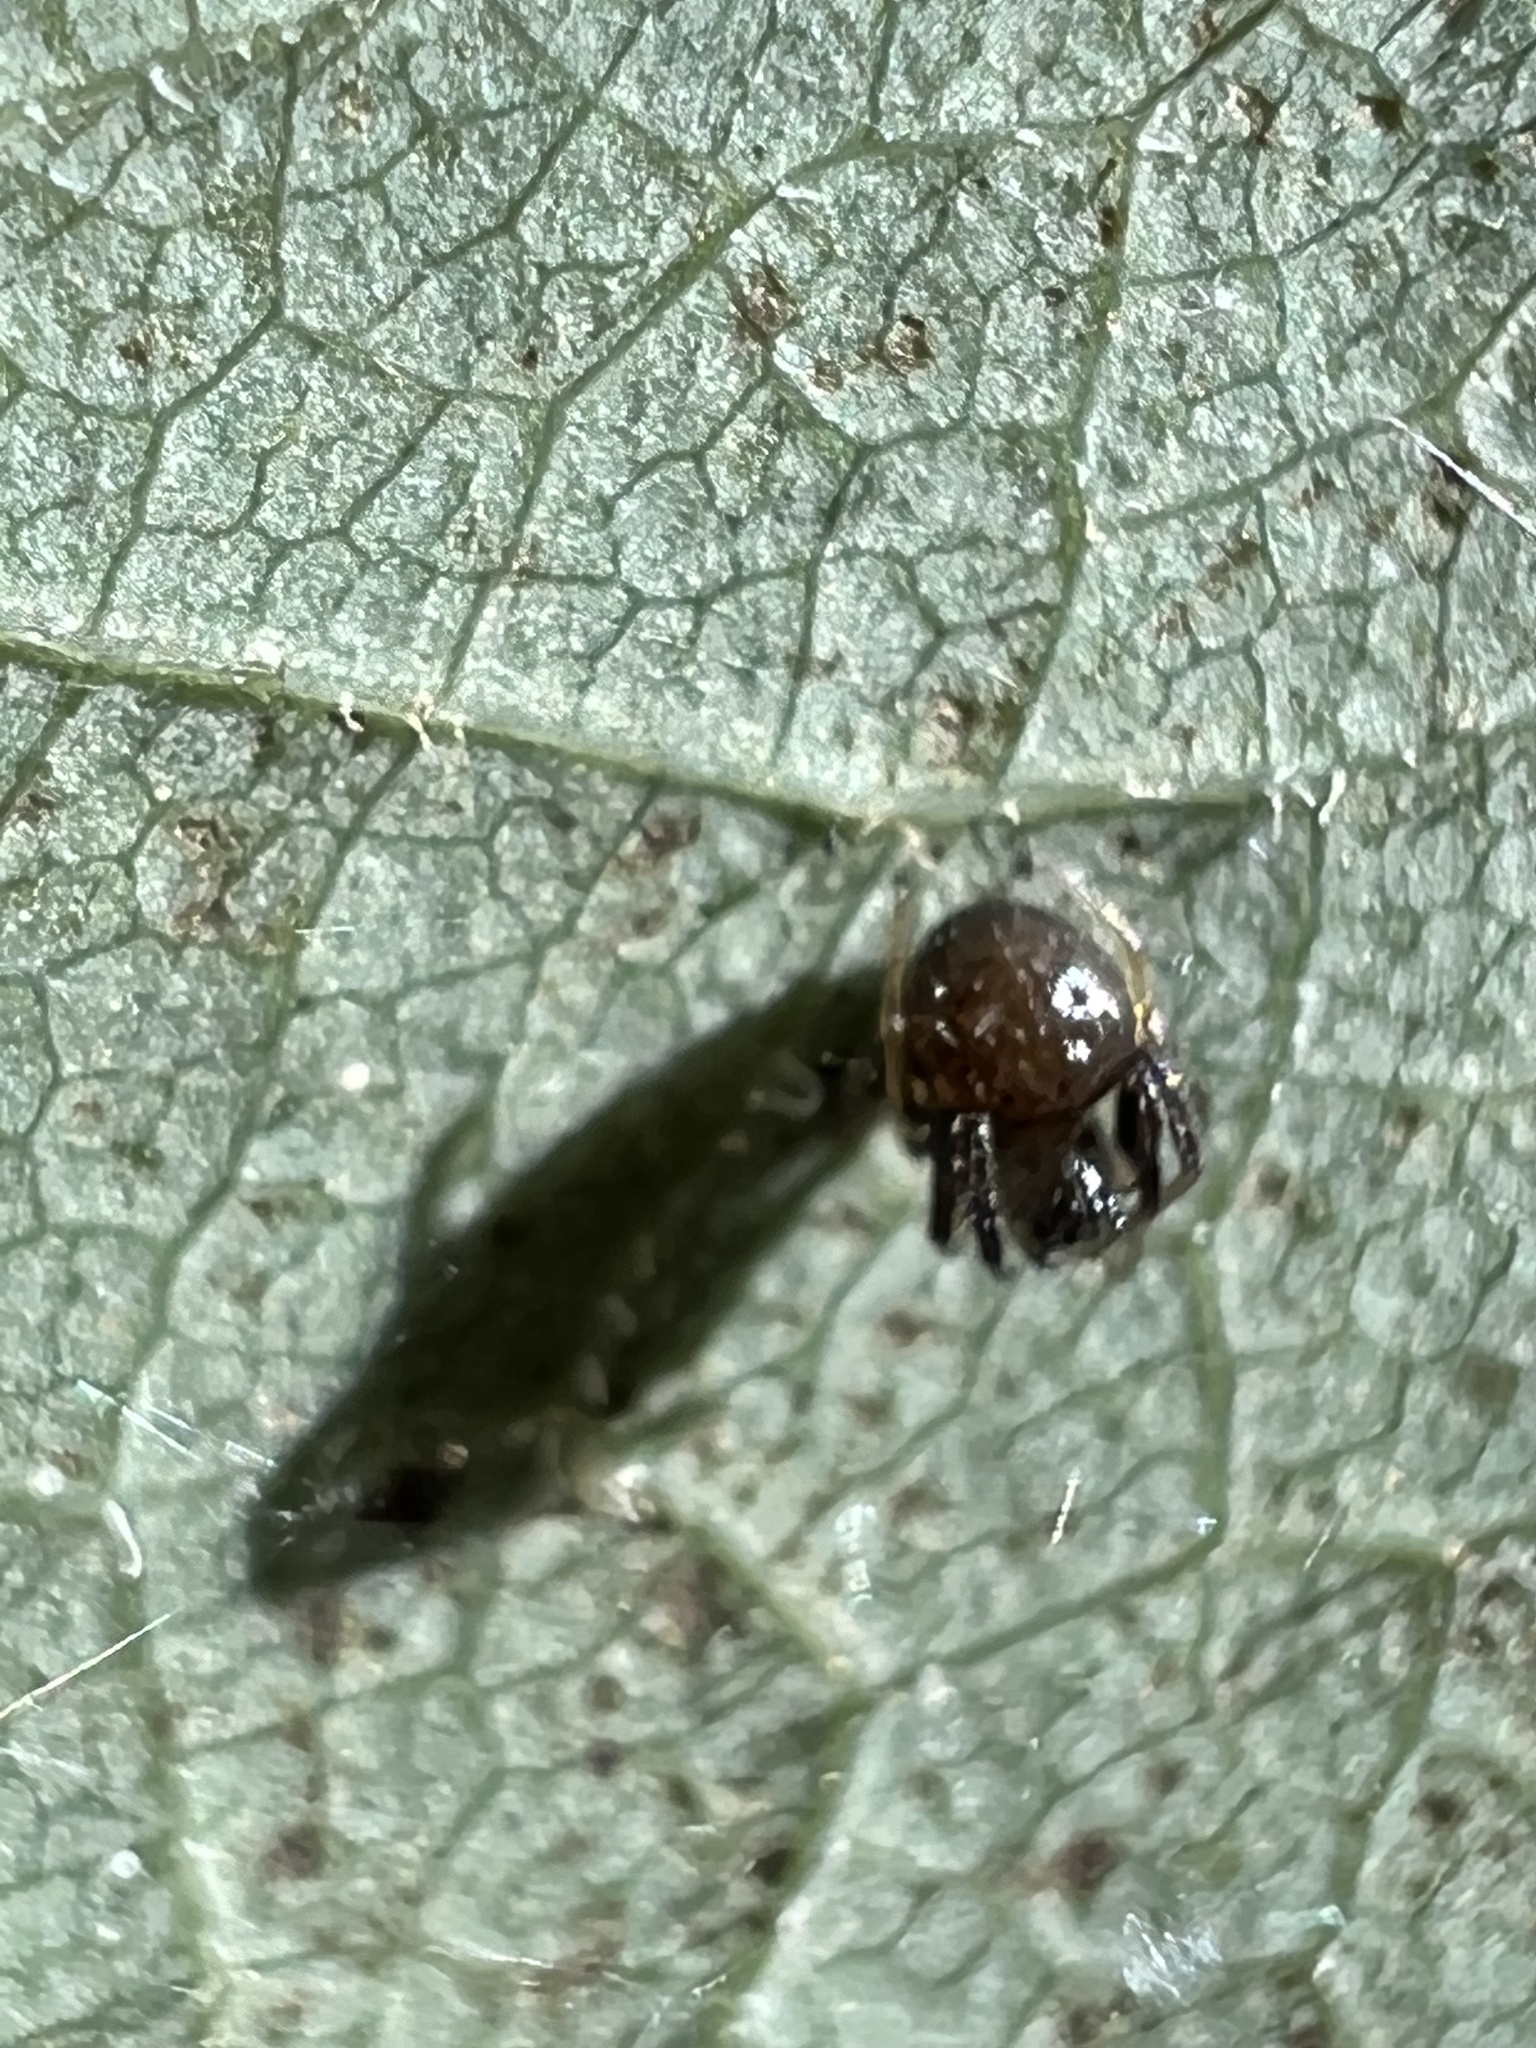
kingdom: Animalia
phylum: Arthropoda
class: Arachnida
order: Araneae
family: Araneidae
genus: Verrucosa
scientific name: Verrucosa arenata
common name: Orb weavers
